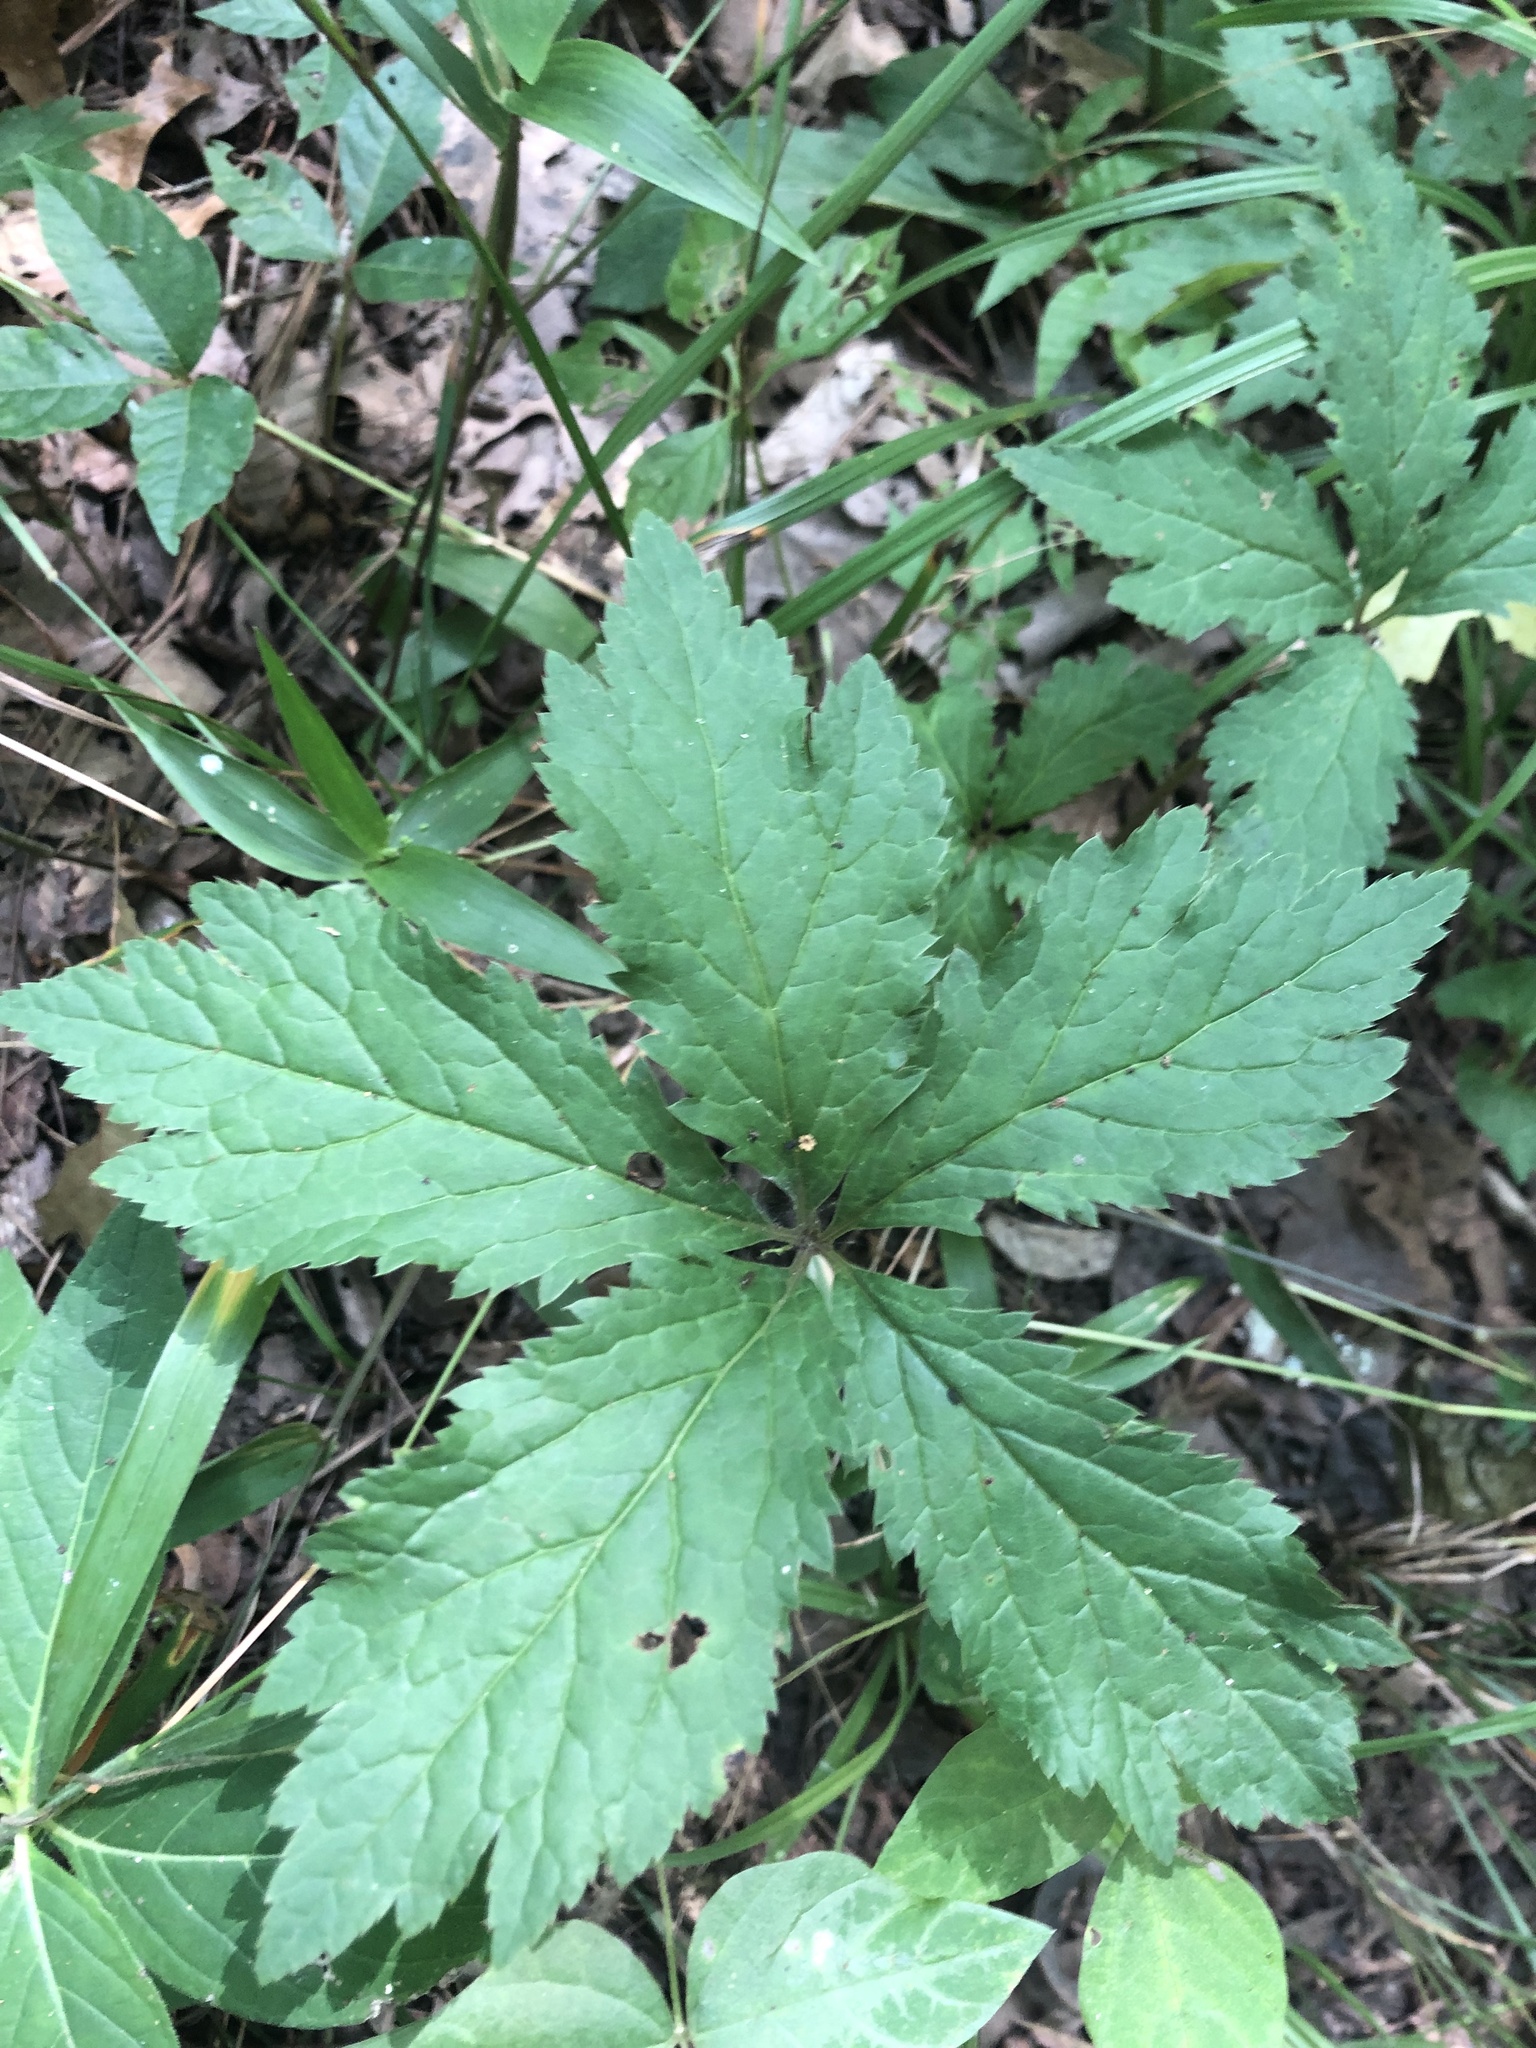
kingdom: Plantae
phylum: Tracheophyta
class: Magnoliopsida
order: Apiales
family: Apiaceae
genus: Sanicula
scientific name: Sanicula odorata
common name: Cluster sanicle
